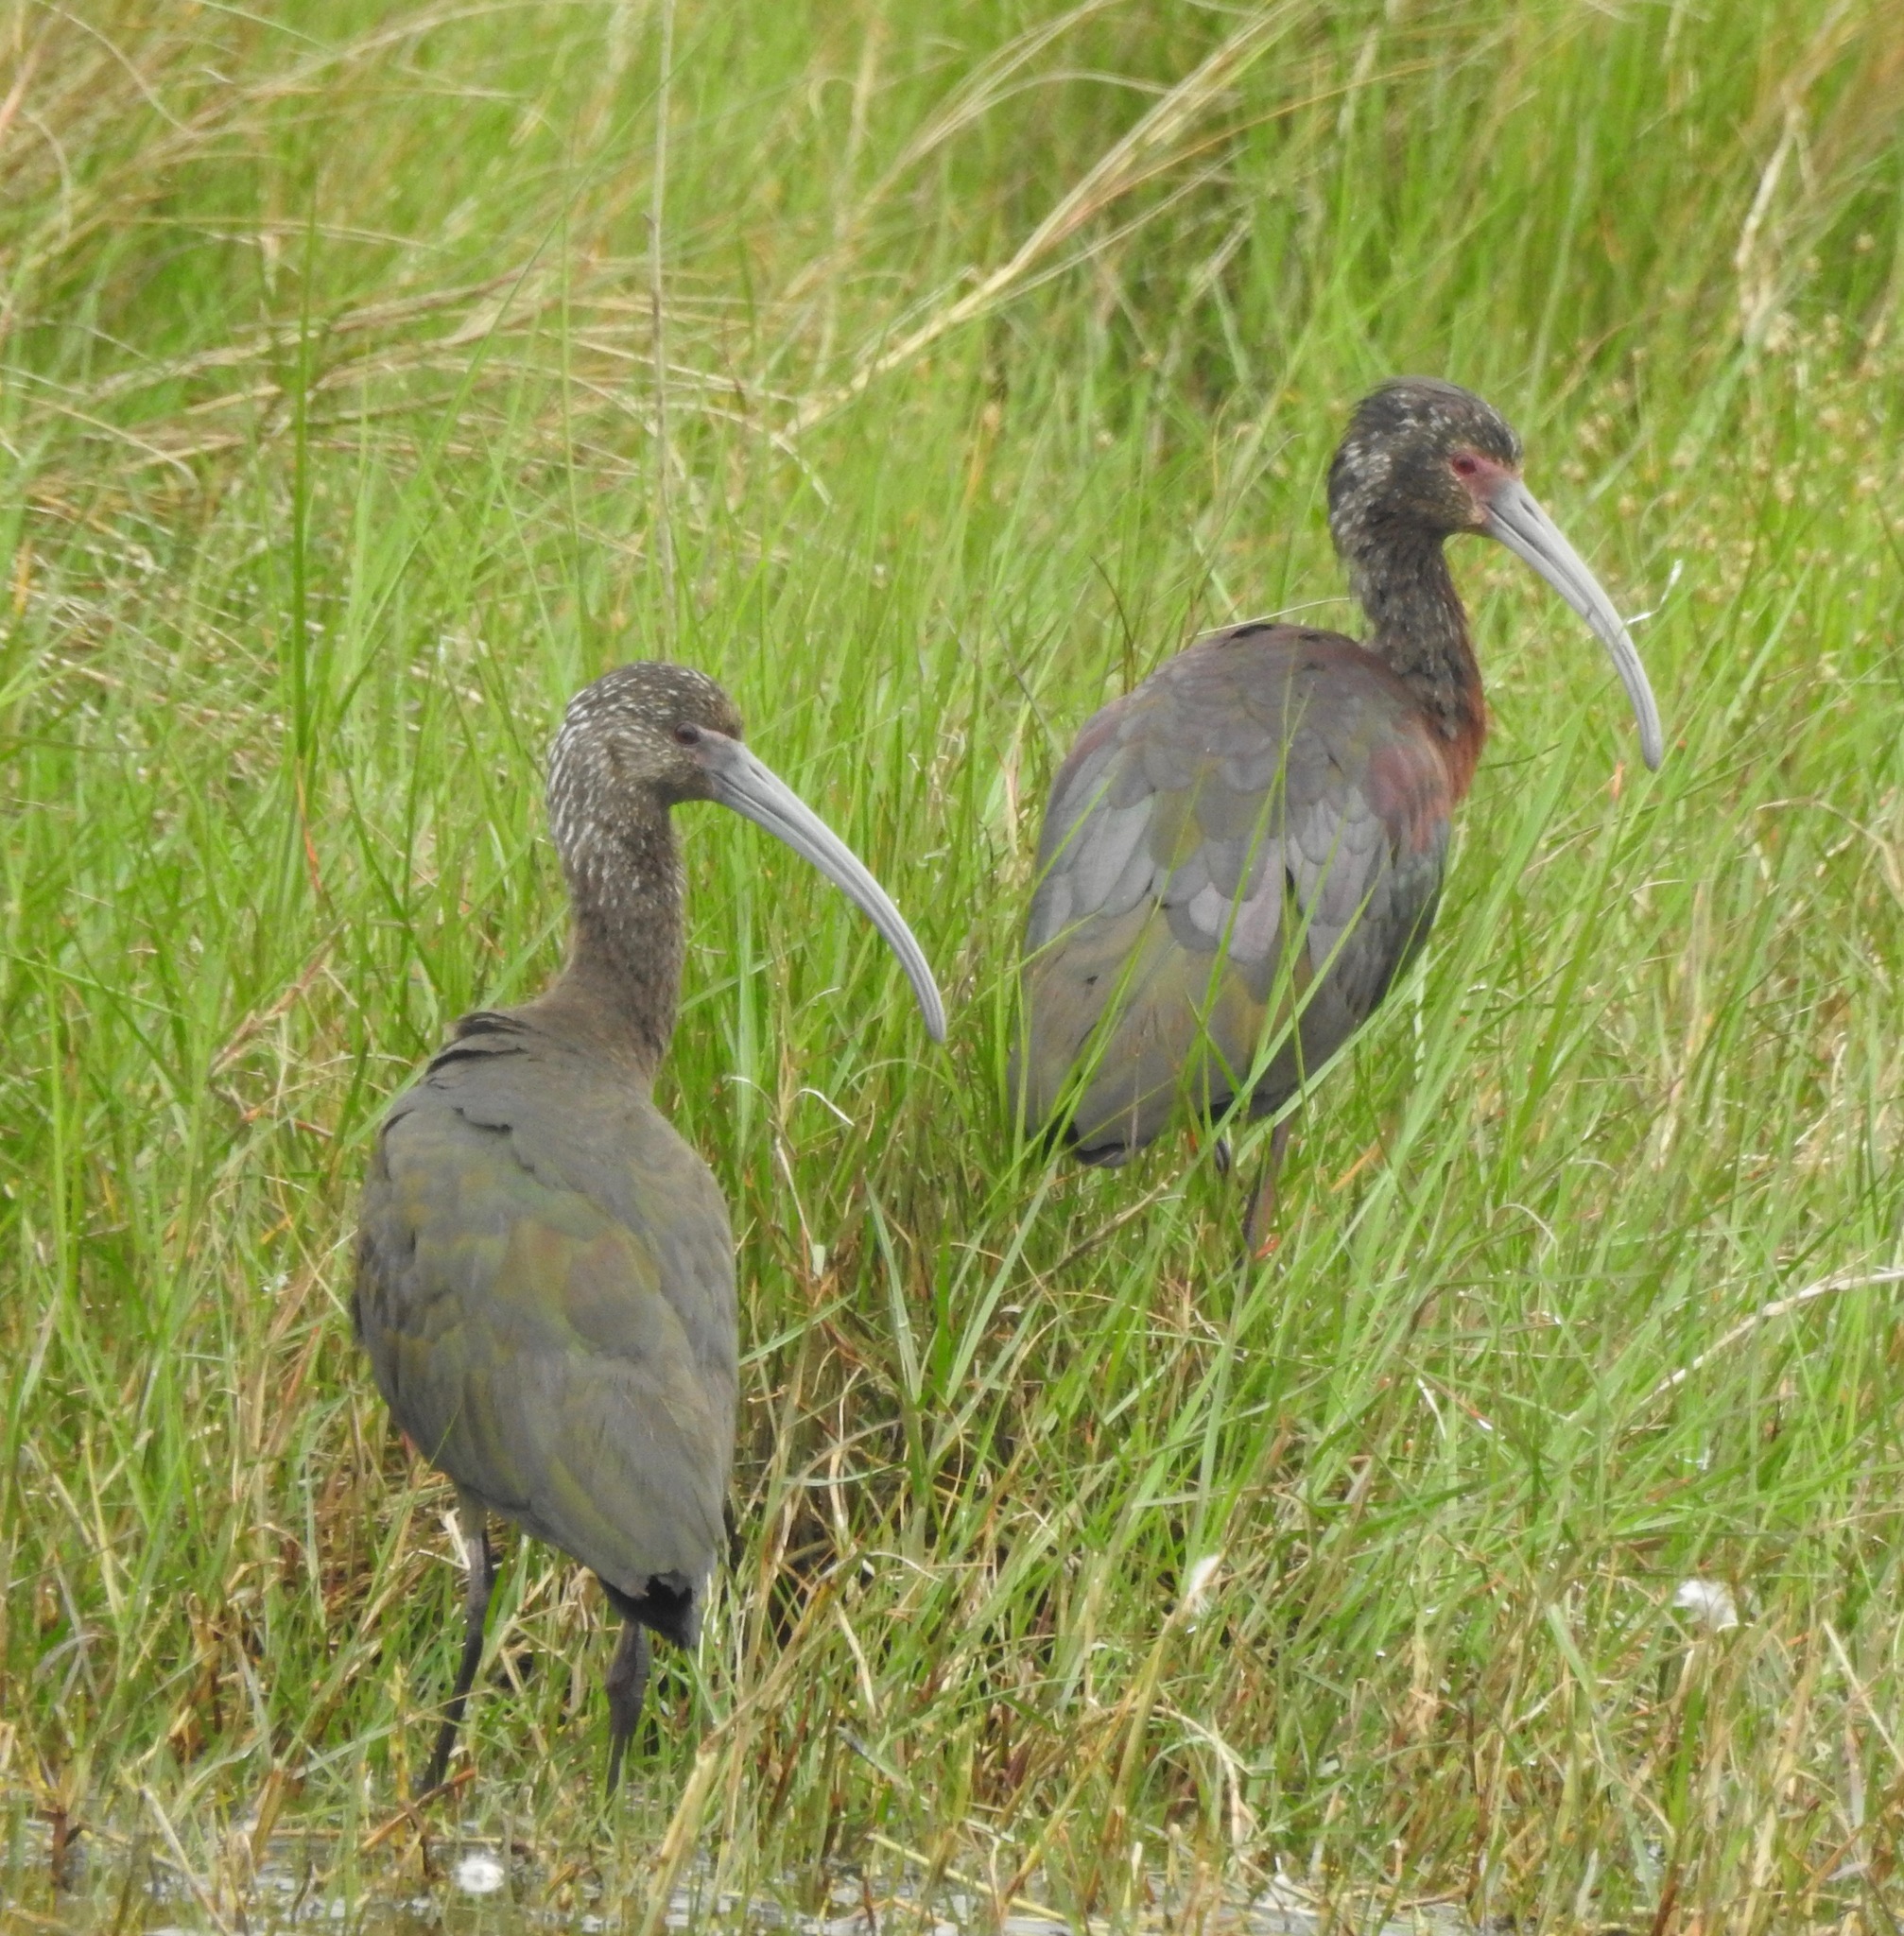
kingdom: Animalia
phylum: Chordata
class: Aves
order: Pelecaniformes
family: Threskiornithidae
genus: Plegadis
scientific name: Plegadis chihi
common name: White-faced ibis
